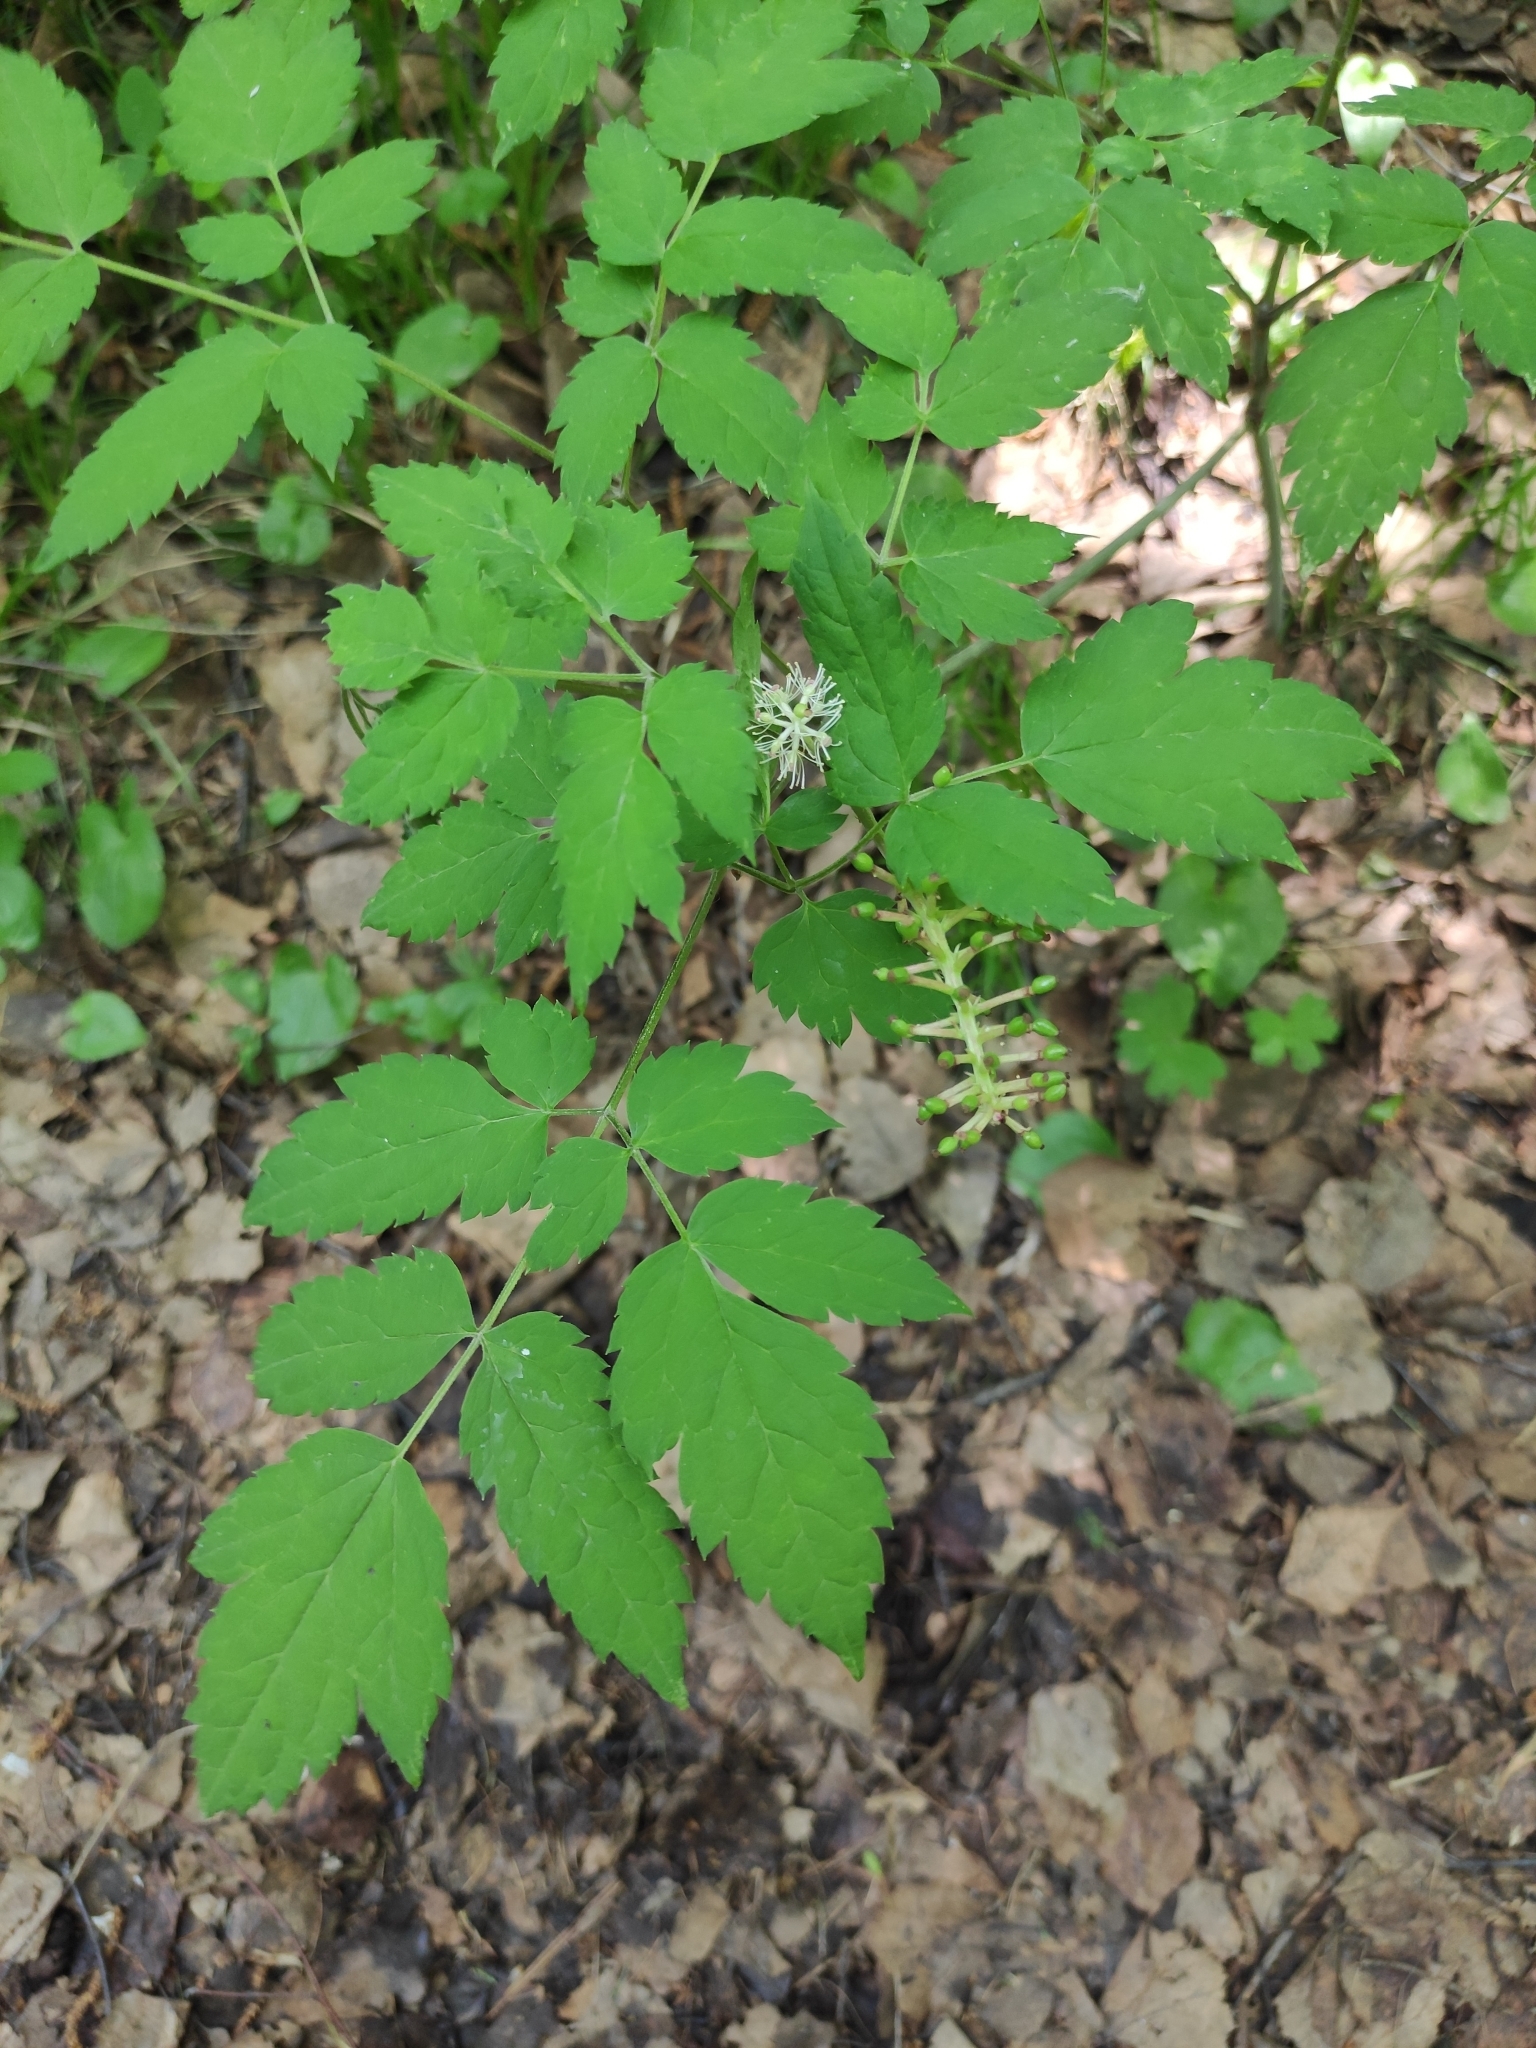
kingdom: Plantae
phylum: Tracheophyta
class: Magnoliopsida
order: Ranunculales
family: Ranunculaceae
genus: Actaea
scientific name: Actaea cimicifuga
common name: Chinese cimicifuga
